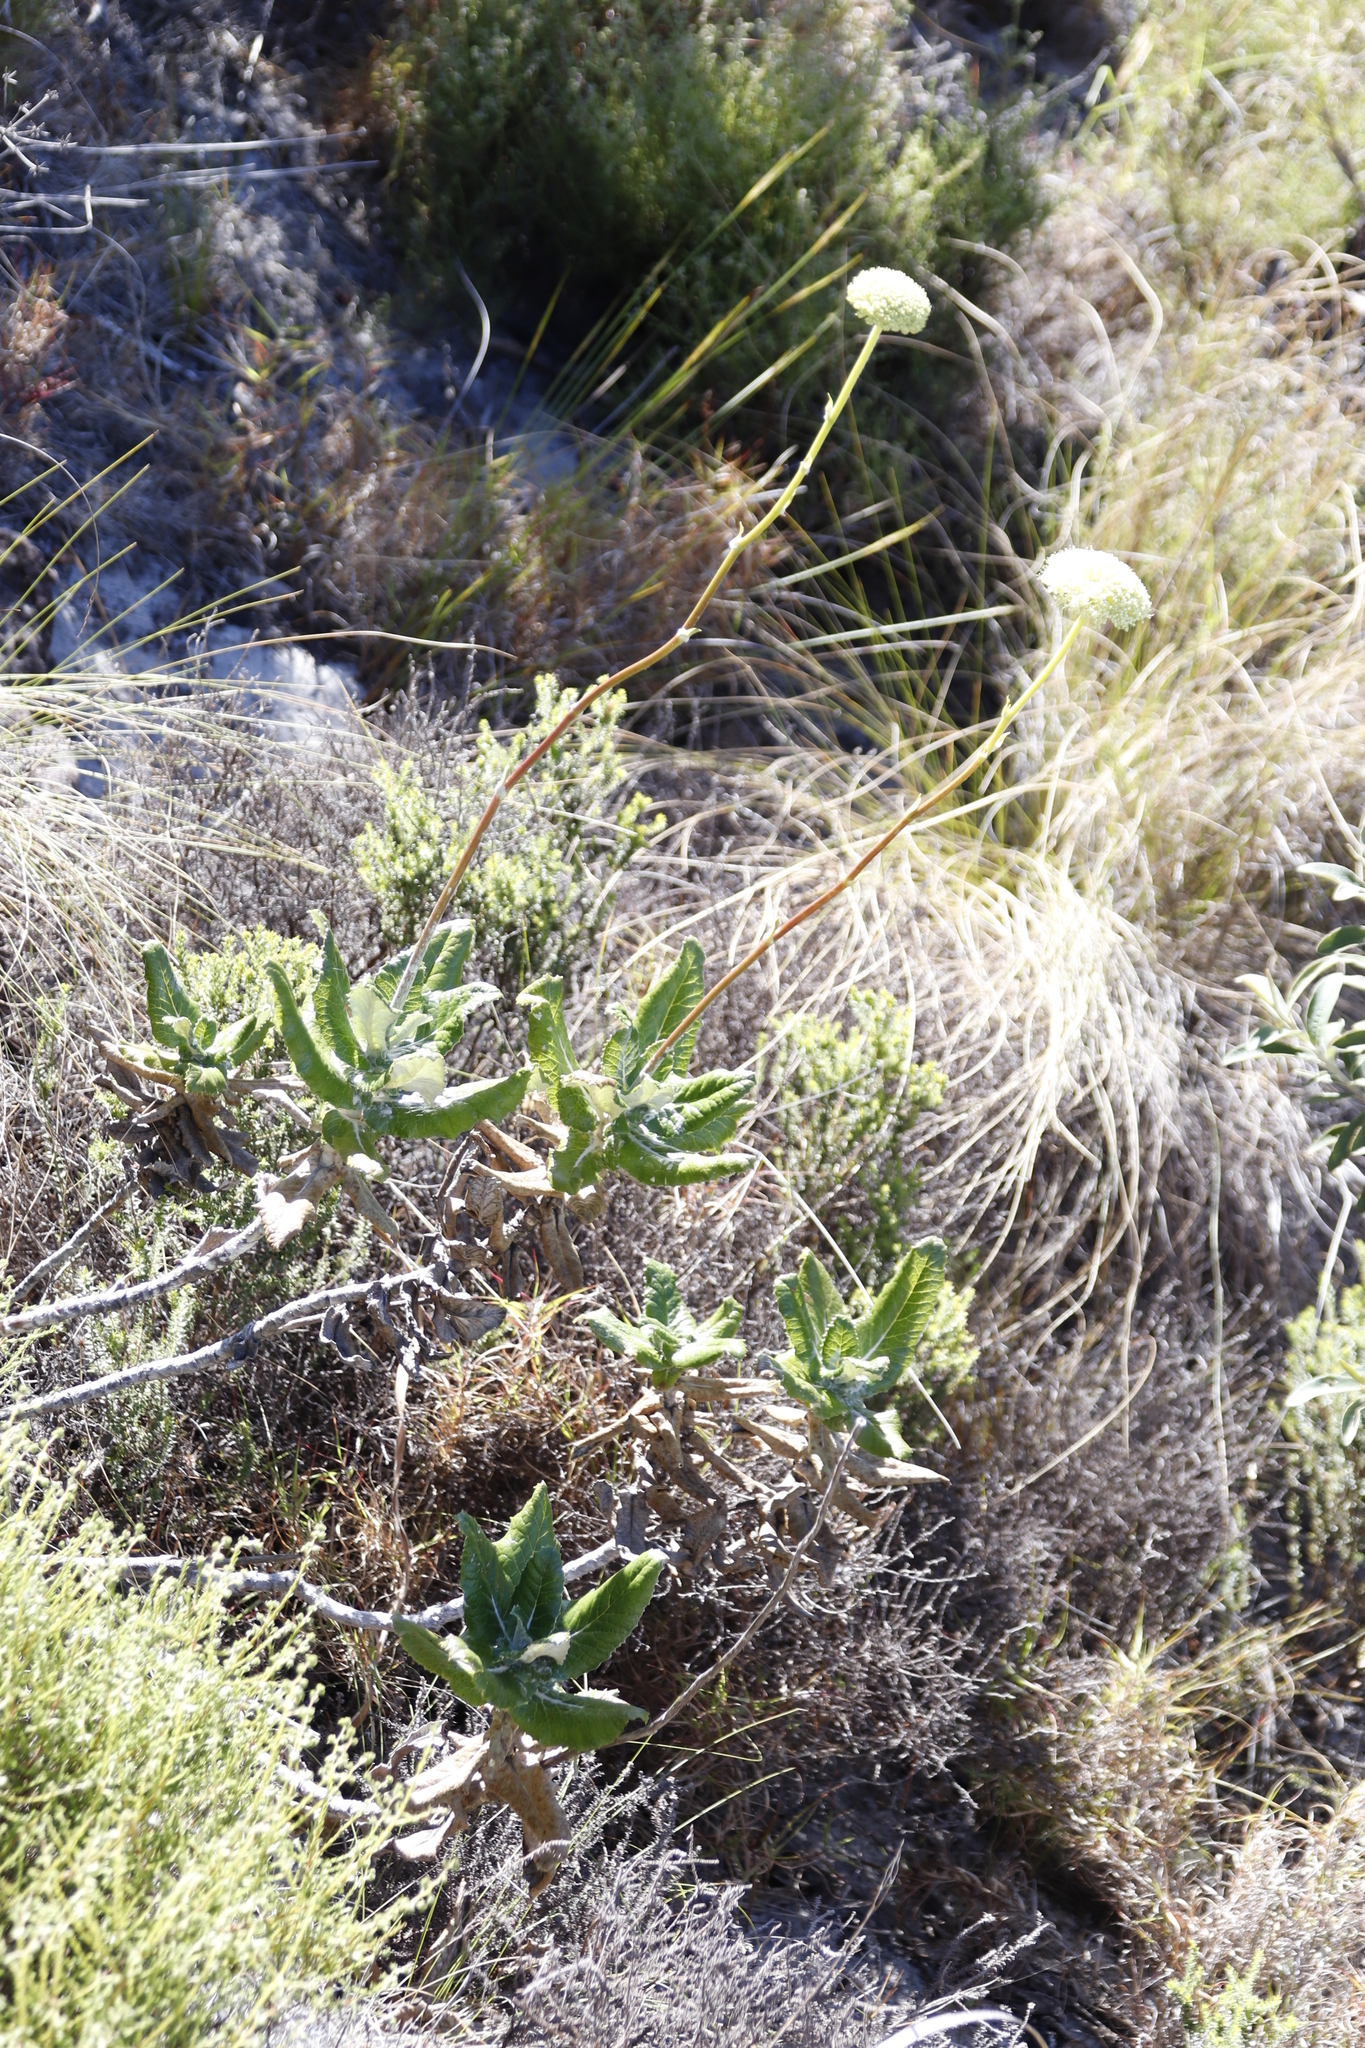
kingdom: Plantae
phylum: Tracheophyta
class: Magnoliopsida
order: Apiales
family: Apiaceae
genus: Hermas
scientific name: Hermas villosa
